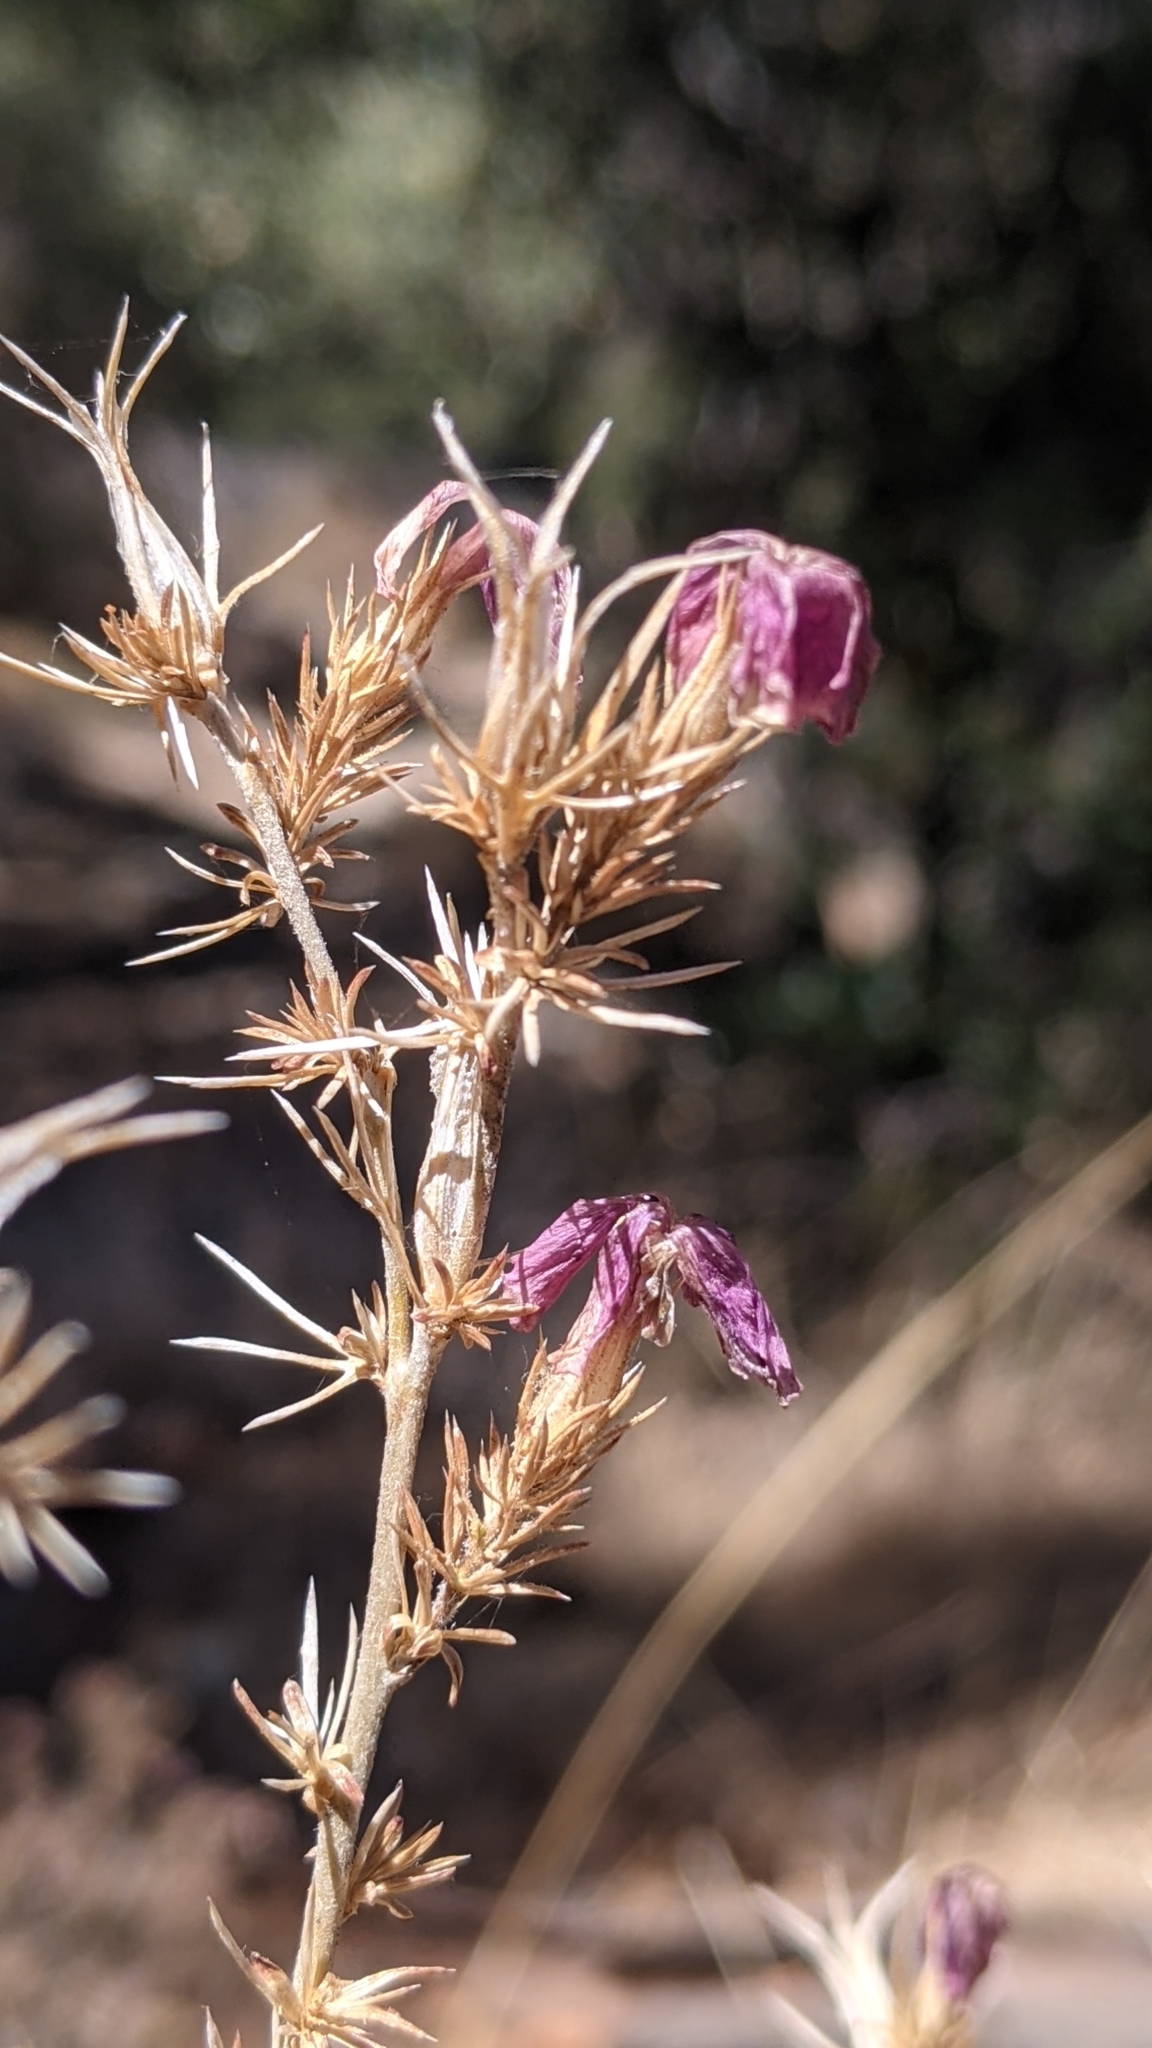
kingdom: Plantae
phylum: Tracheophyta
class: Magnoliopsida
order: Ericales
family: Polemoniaceae
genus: Linanthus
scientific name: Linanthus californicus
